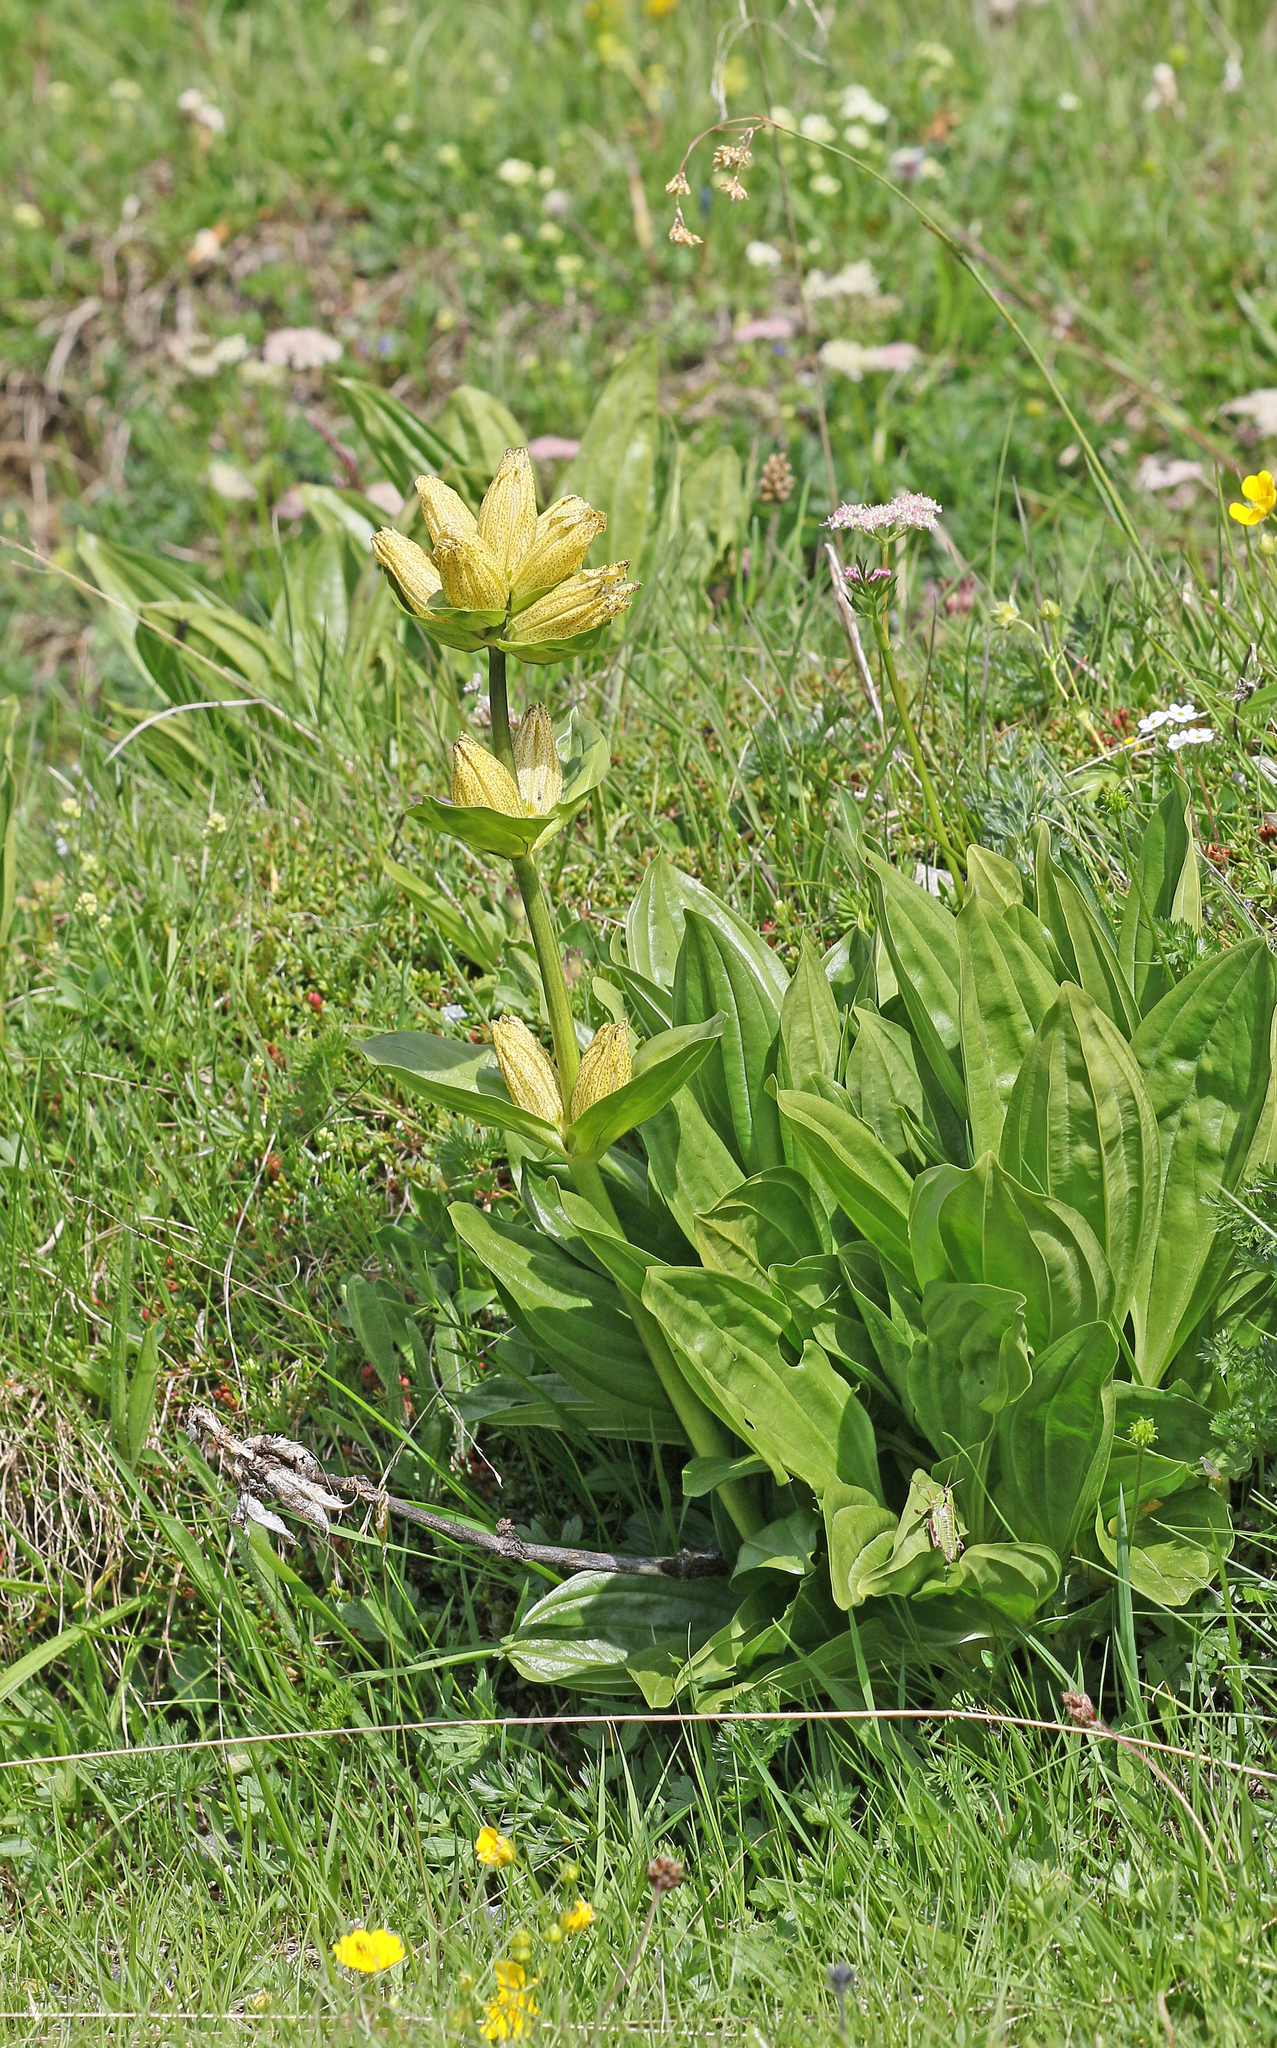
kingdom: Plantae
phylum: Tracheophyta
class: Magnoliopsida
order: Gentianales
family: Gentianaceae
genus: Gentiana
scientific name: Gentiana punctata
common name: Spotted gentian
